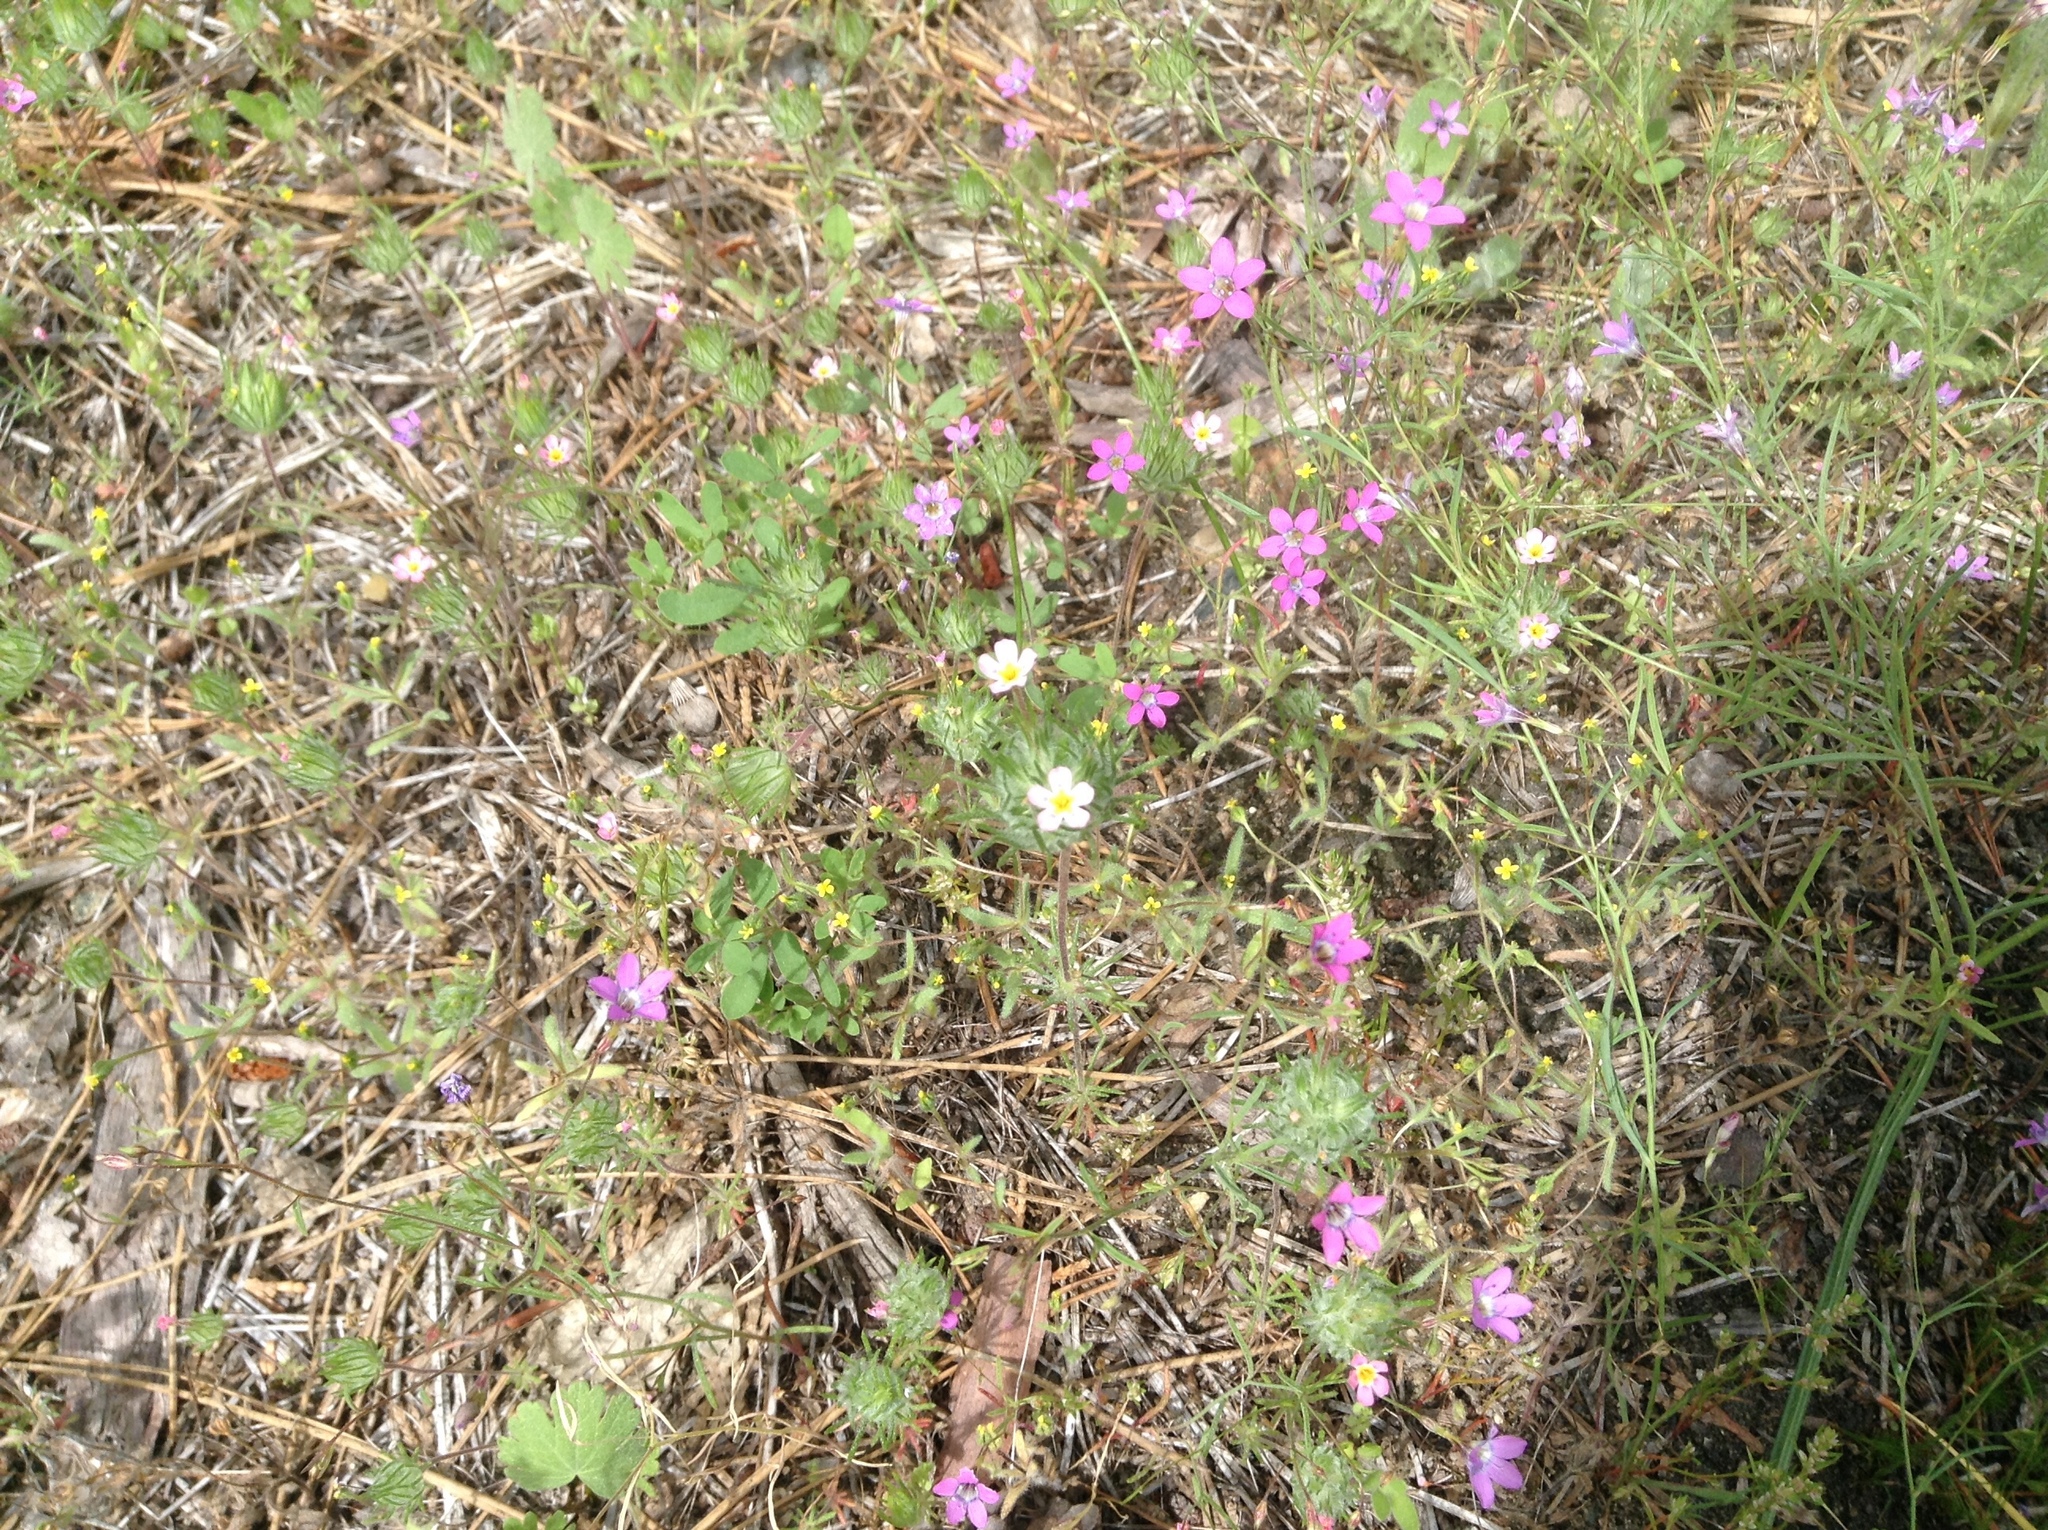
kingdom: Plantae
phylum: Tracheophyta
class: Magnoliopsida
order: Ericales
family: Polemoniaceae
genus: Navarretia
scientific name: Navarretia leptalea
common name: Bridges' pincushionplant
